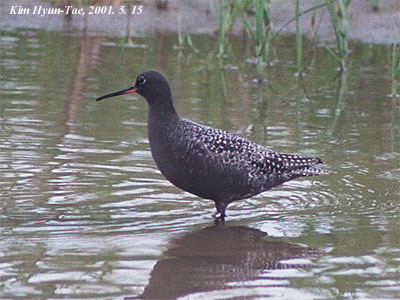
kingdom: Animalia
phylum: Chordata
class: Aves
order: Charadriiformes
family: Scolopacidae
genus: Tringa
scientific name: Tringa erythropus
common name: Spotted redshank
